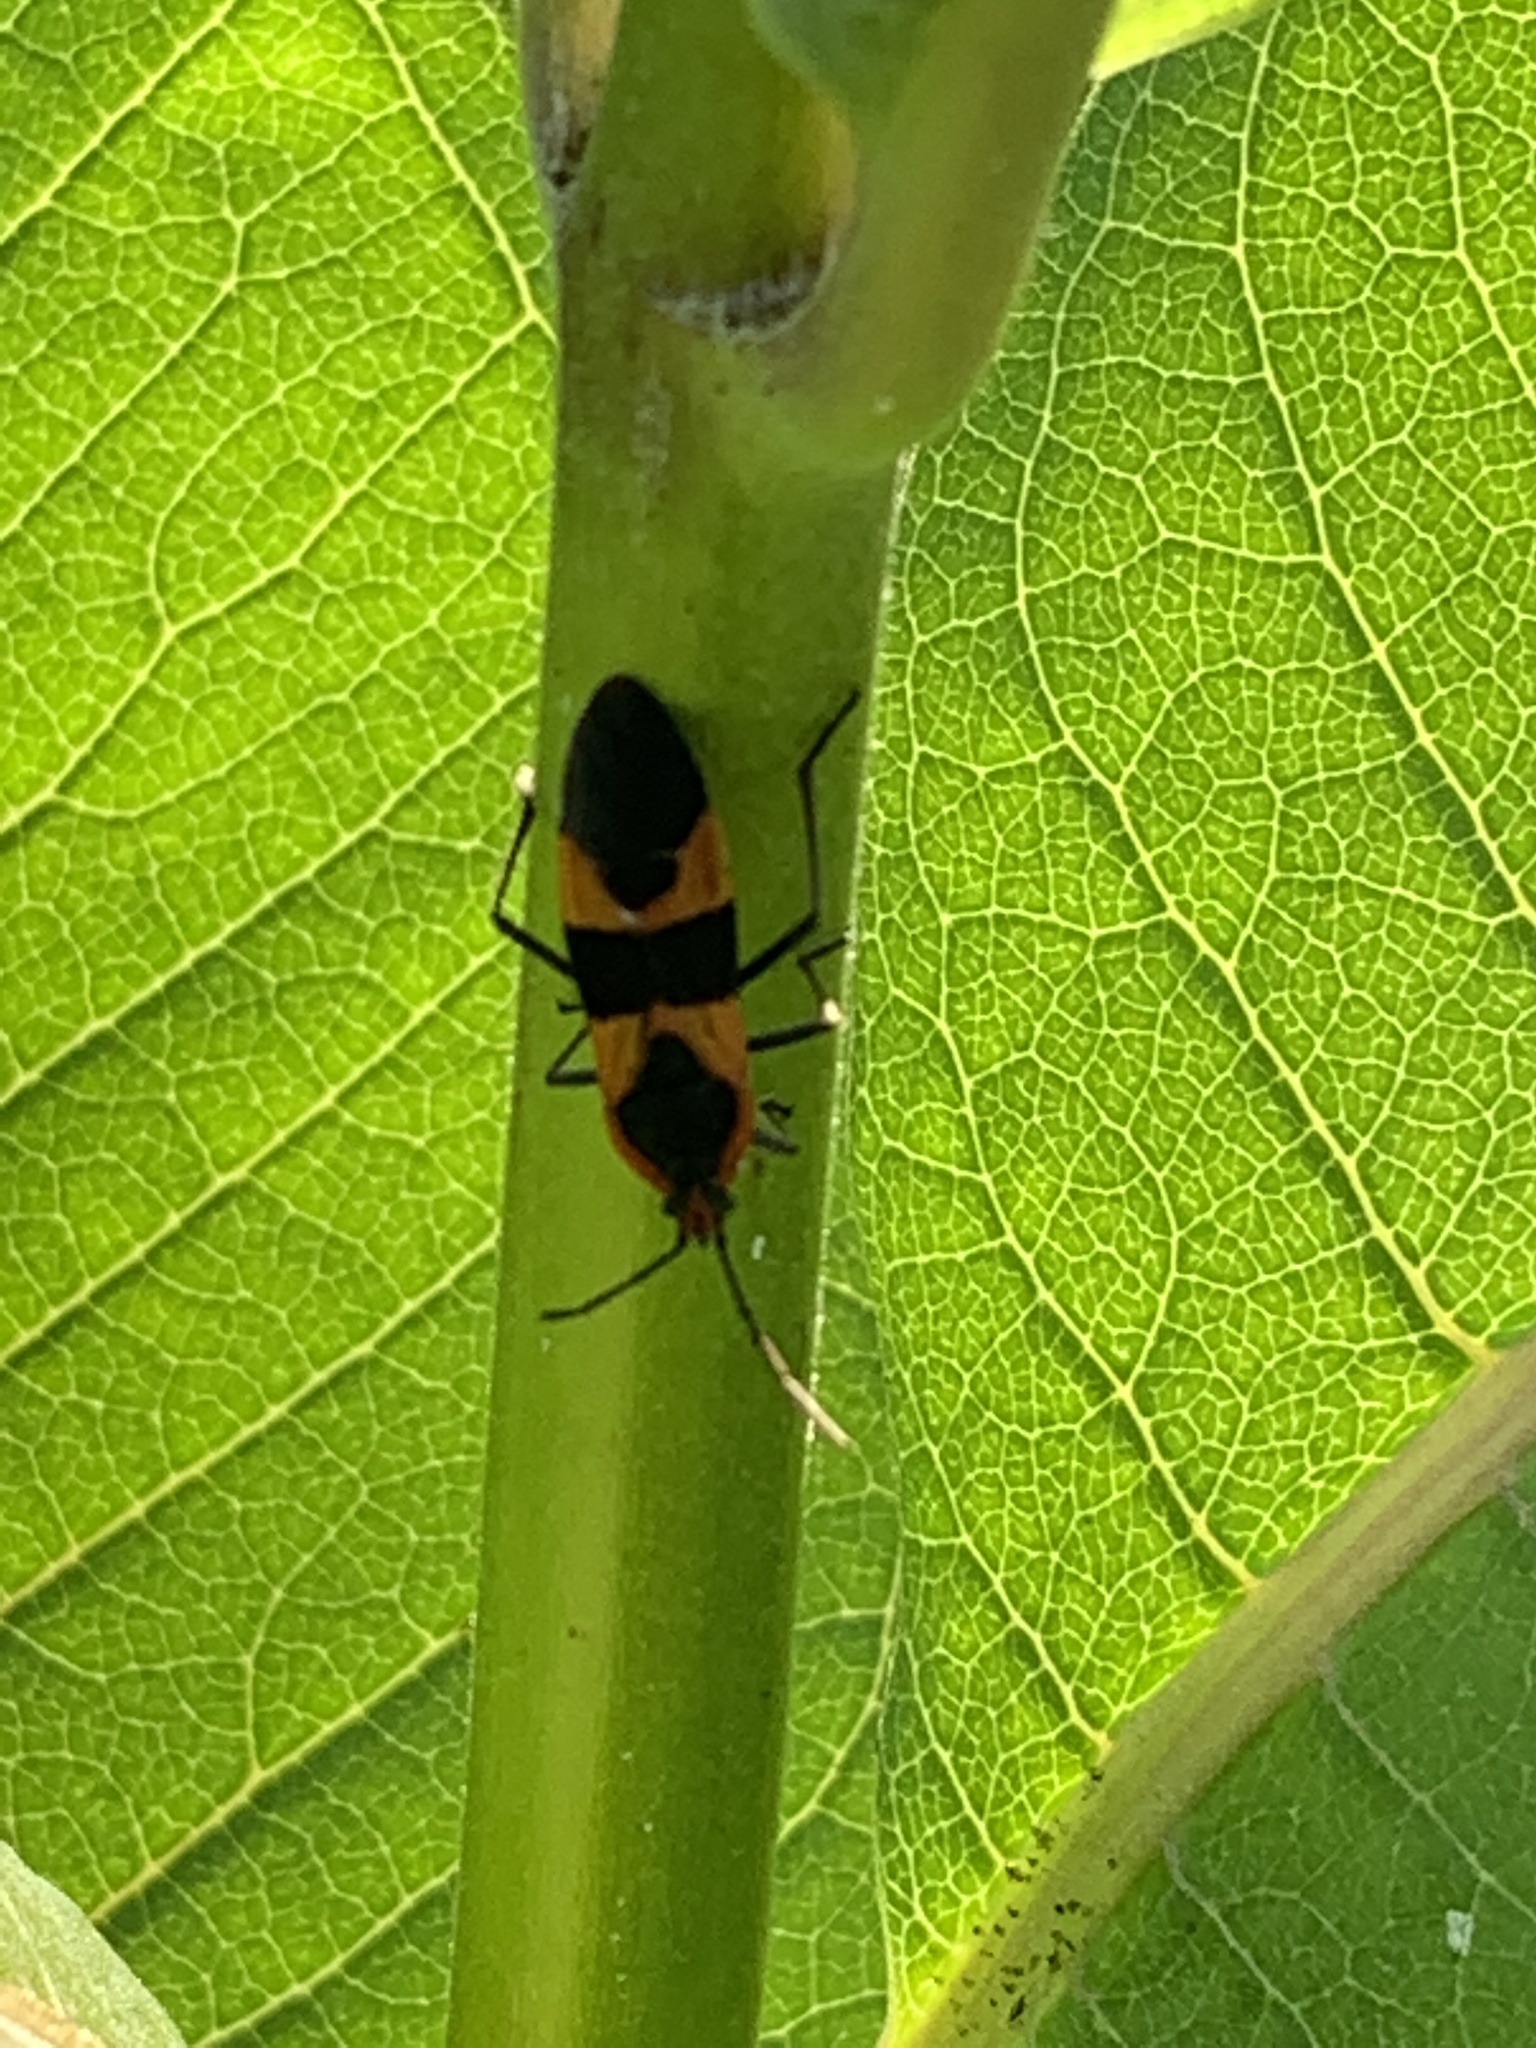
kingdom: Animalia
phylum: Arthropoda
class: Insecta
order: Hemiptera
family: Lygaeidae
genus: Oncopeltus
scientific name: Oncopeltus fasciatus
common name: Large milkweed bug
